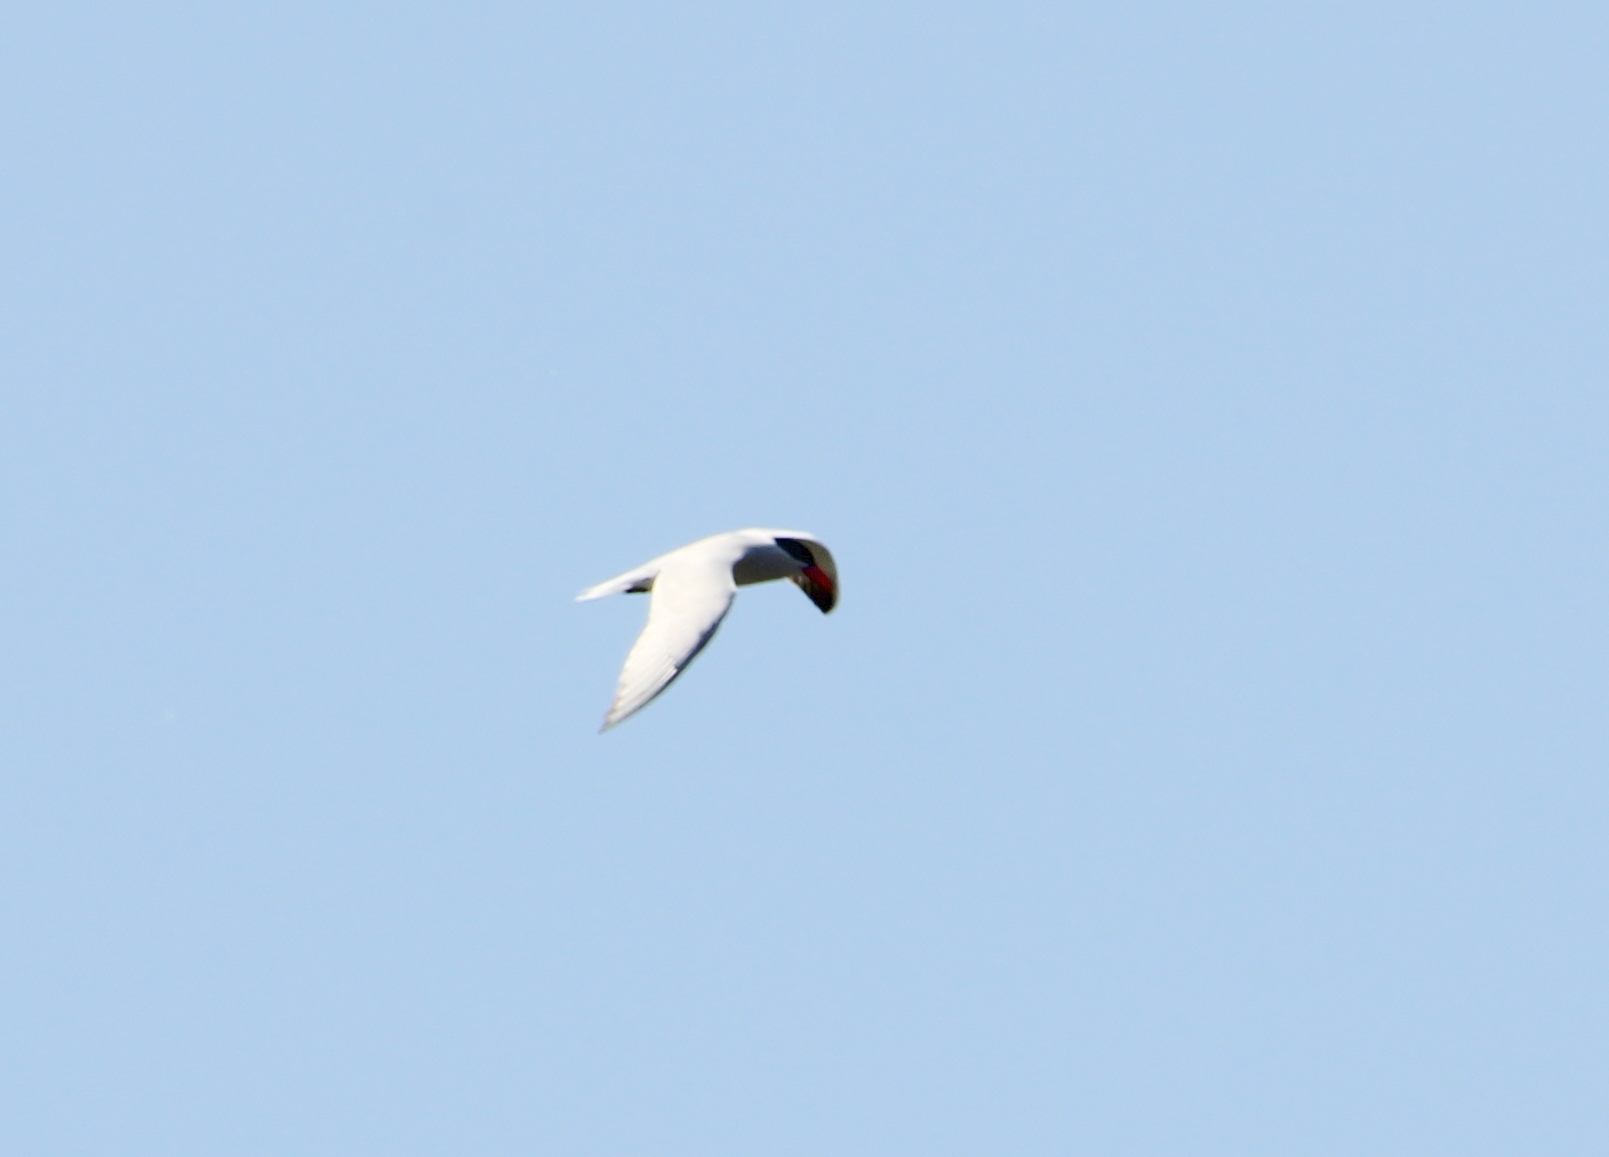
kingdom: Animalia
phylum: Chordata
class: Aves
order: Charadriiformes
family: Laridae
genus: Hydroprogne
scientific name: Hydroprogne caspia
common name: Caspian tern
